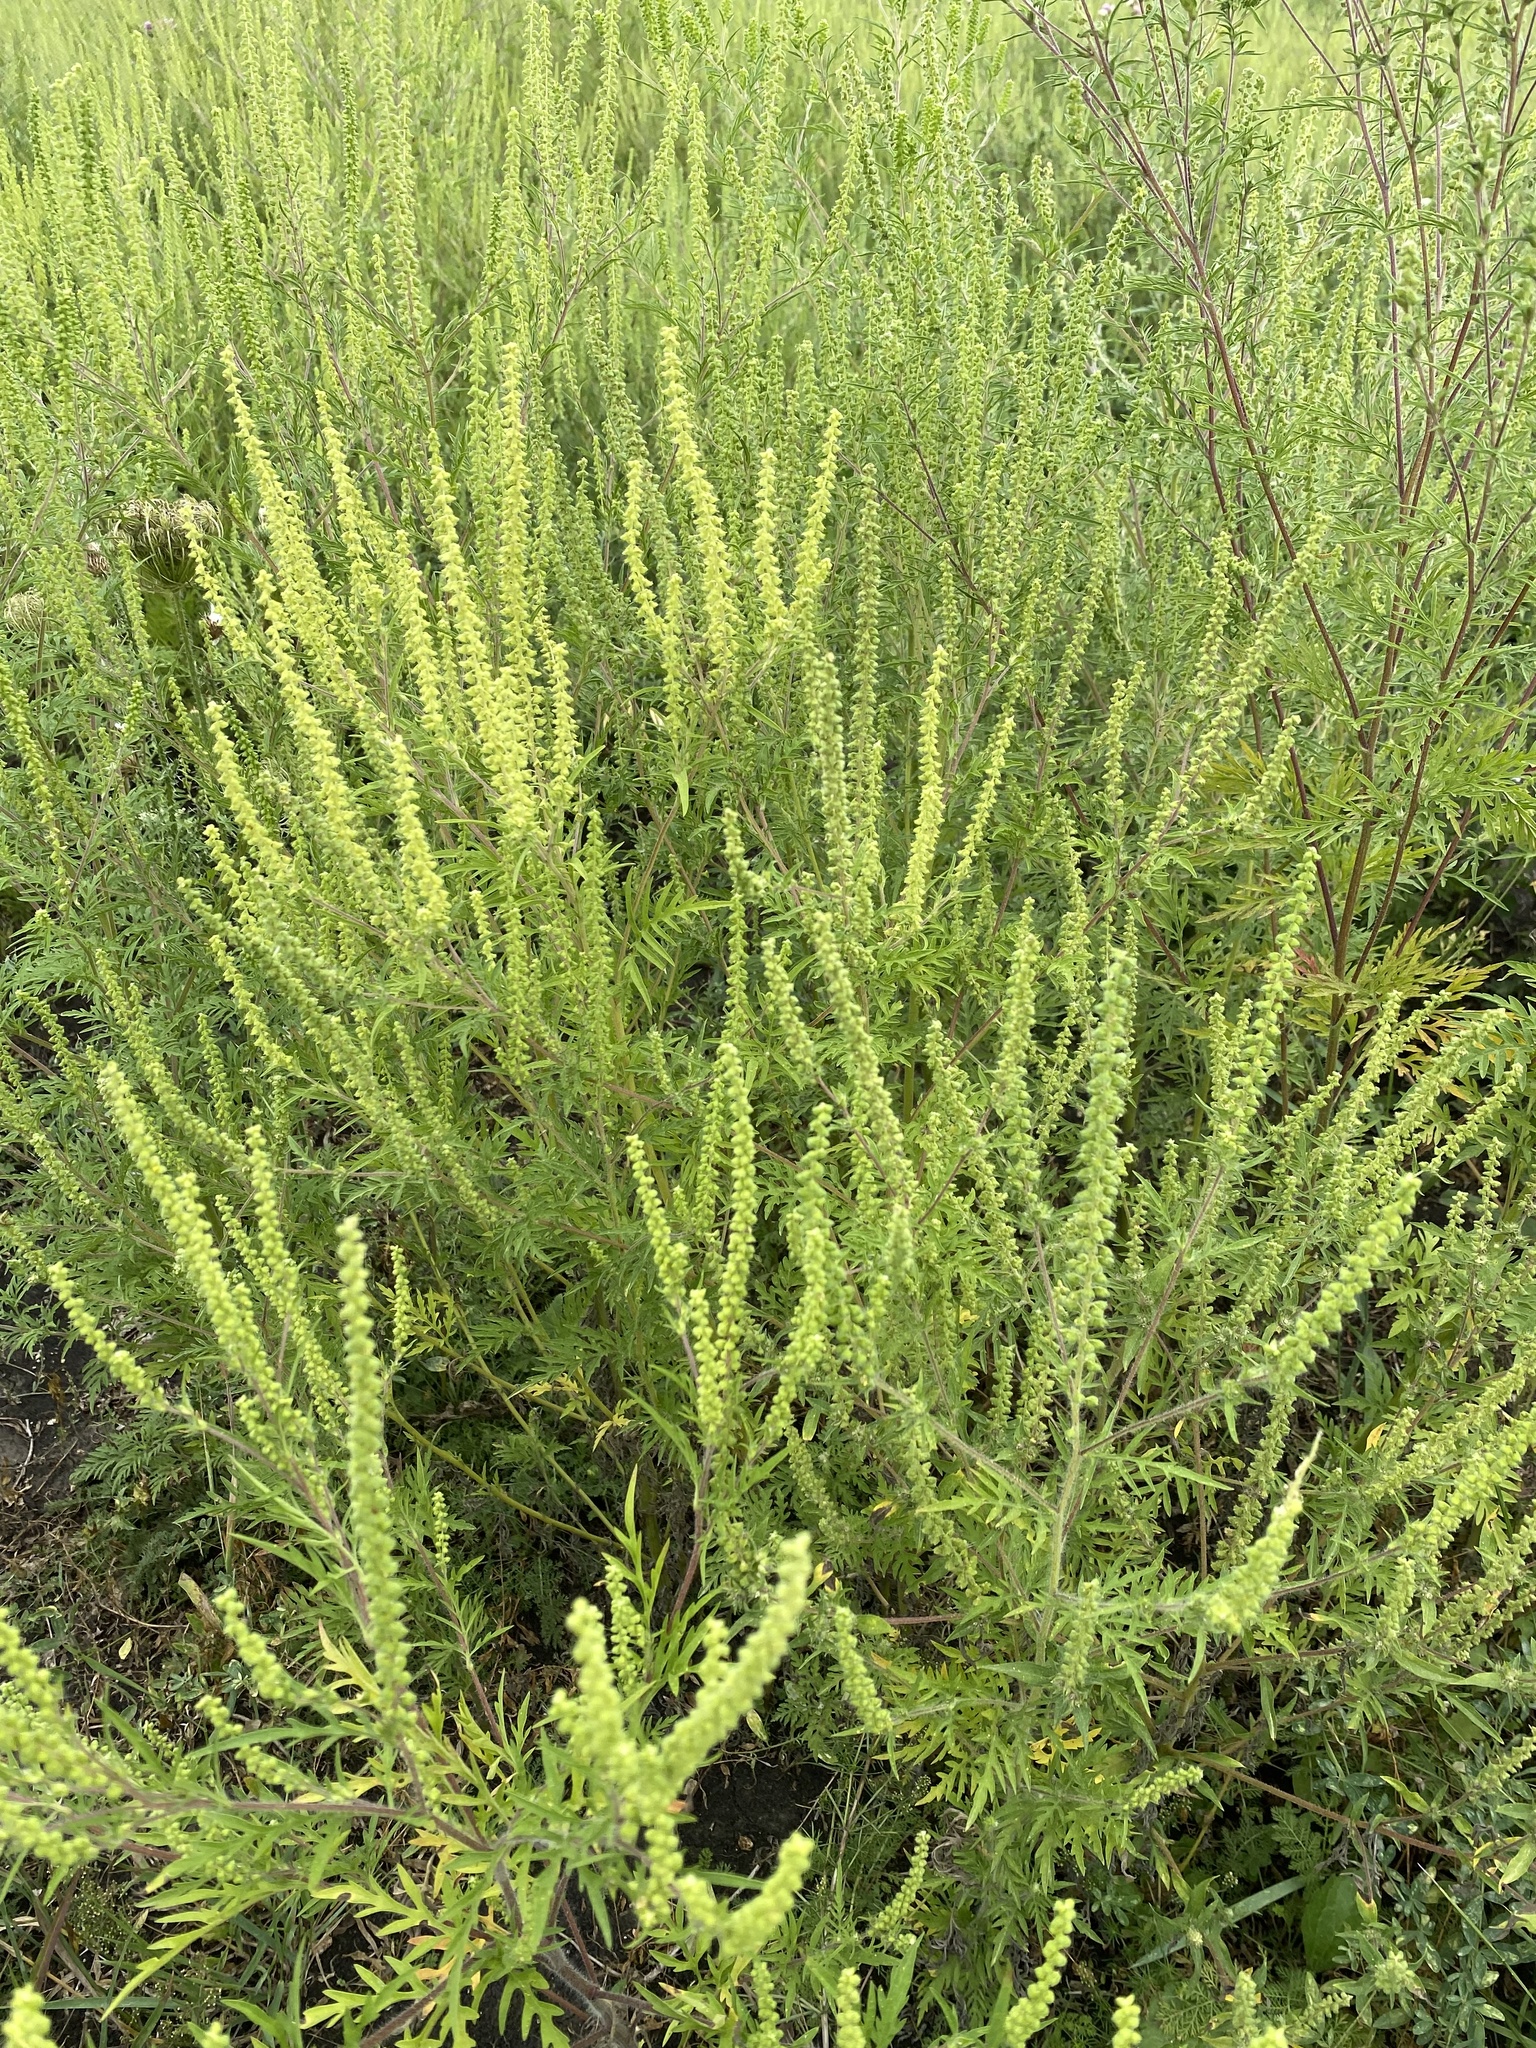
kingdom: Plantae
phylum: Tracheophyta
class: Magnoliopsida
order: Asterales
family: Asteraceae
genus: Ambrosia
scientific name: Ambrosia artemisiifolia
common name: Annual ragweed
